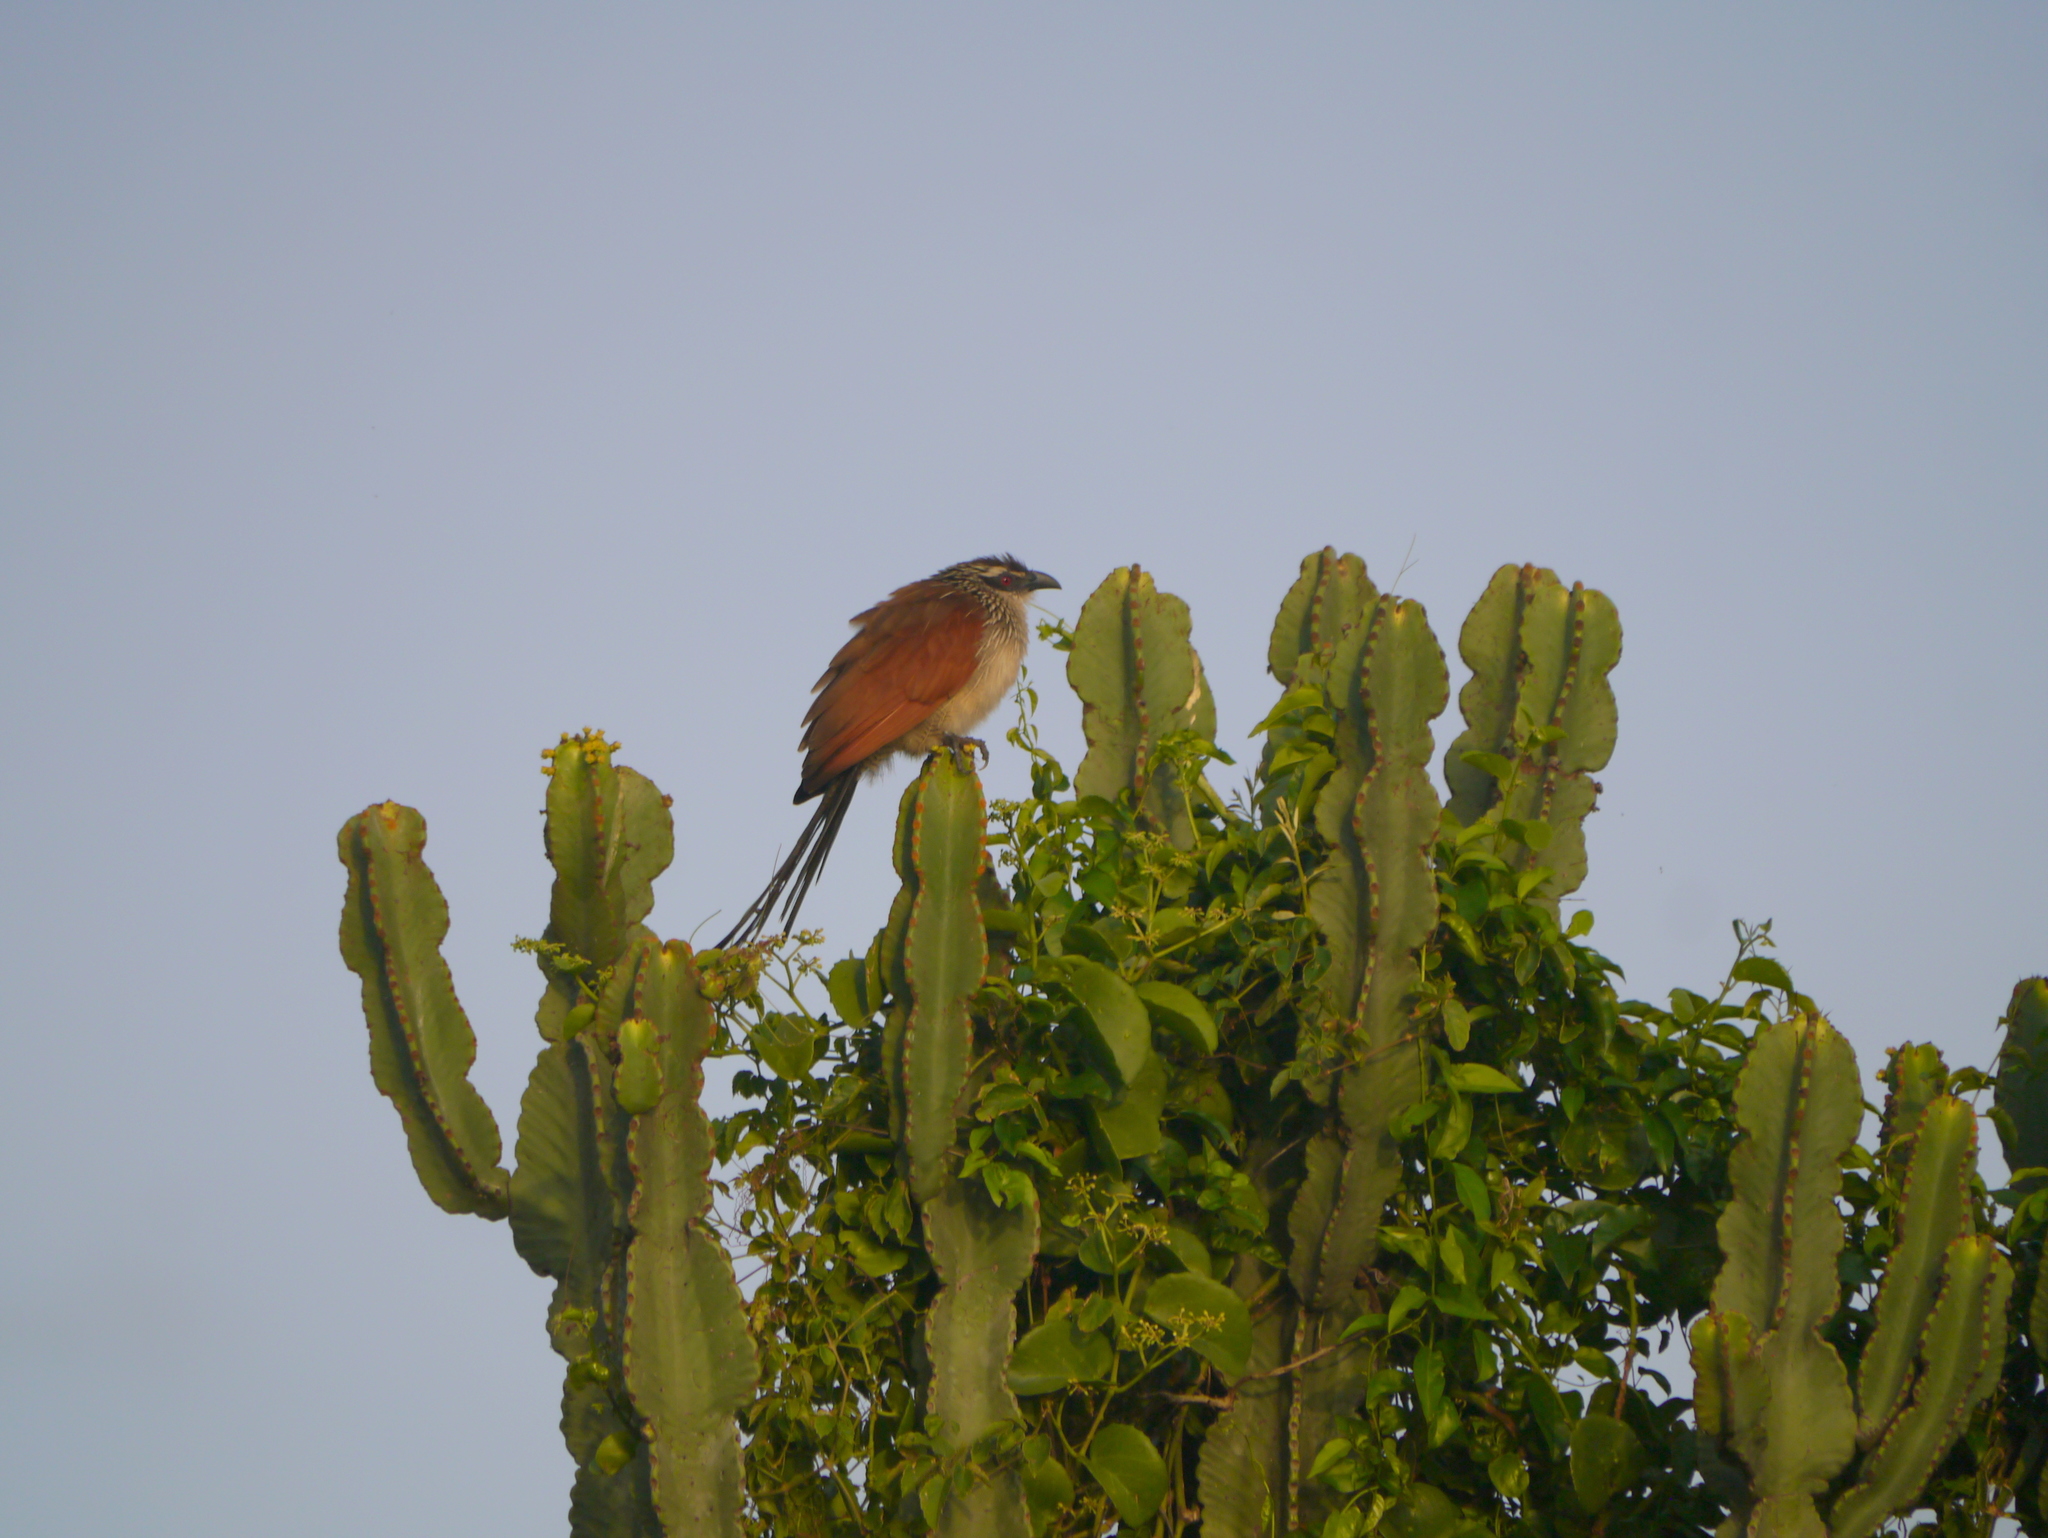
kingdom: Animalia
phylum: Chordata
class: Aves
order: Cuculiformes
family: Cuculidae
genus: Centropus
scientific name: Centropus superciliosus
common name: White-browed coucal
